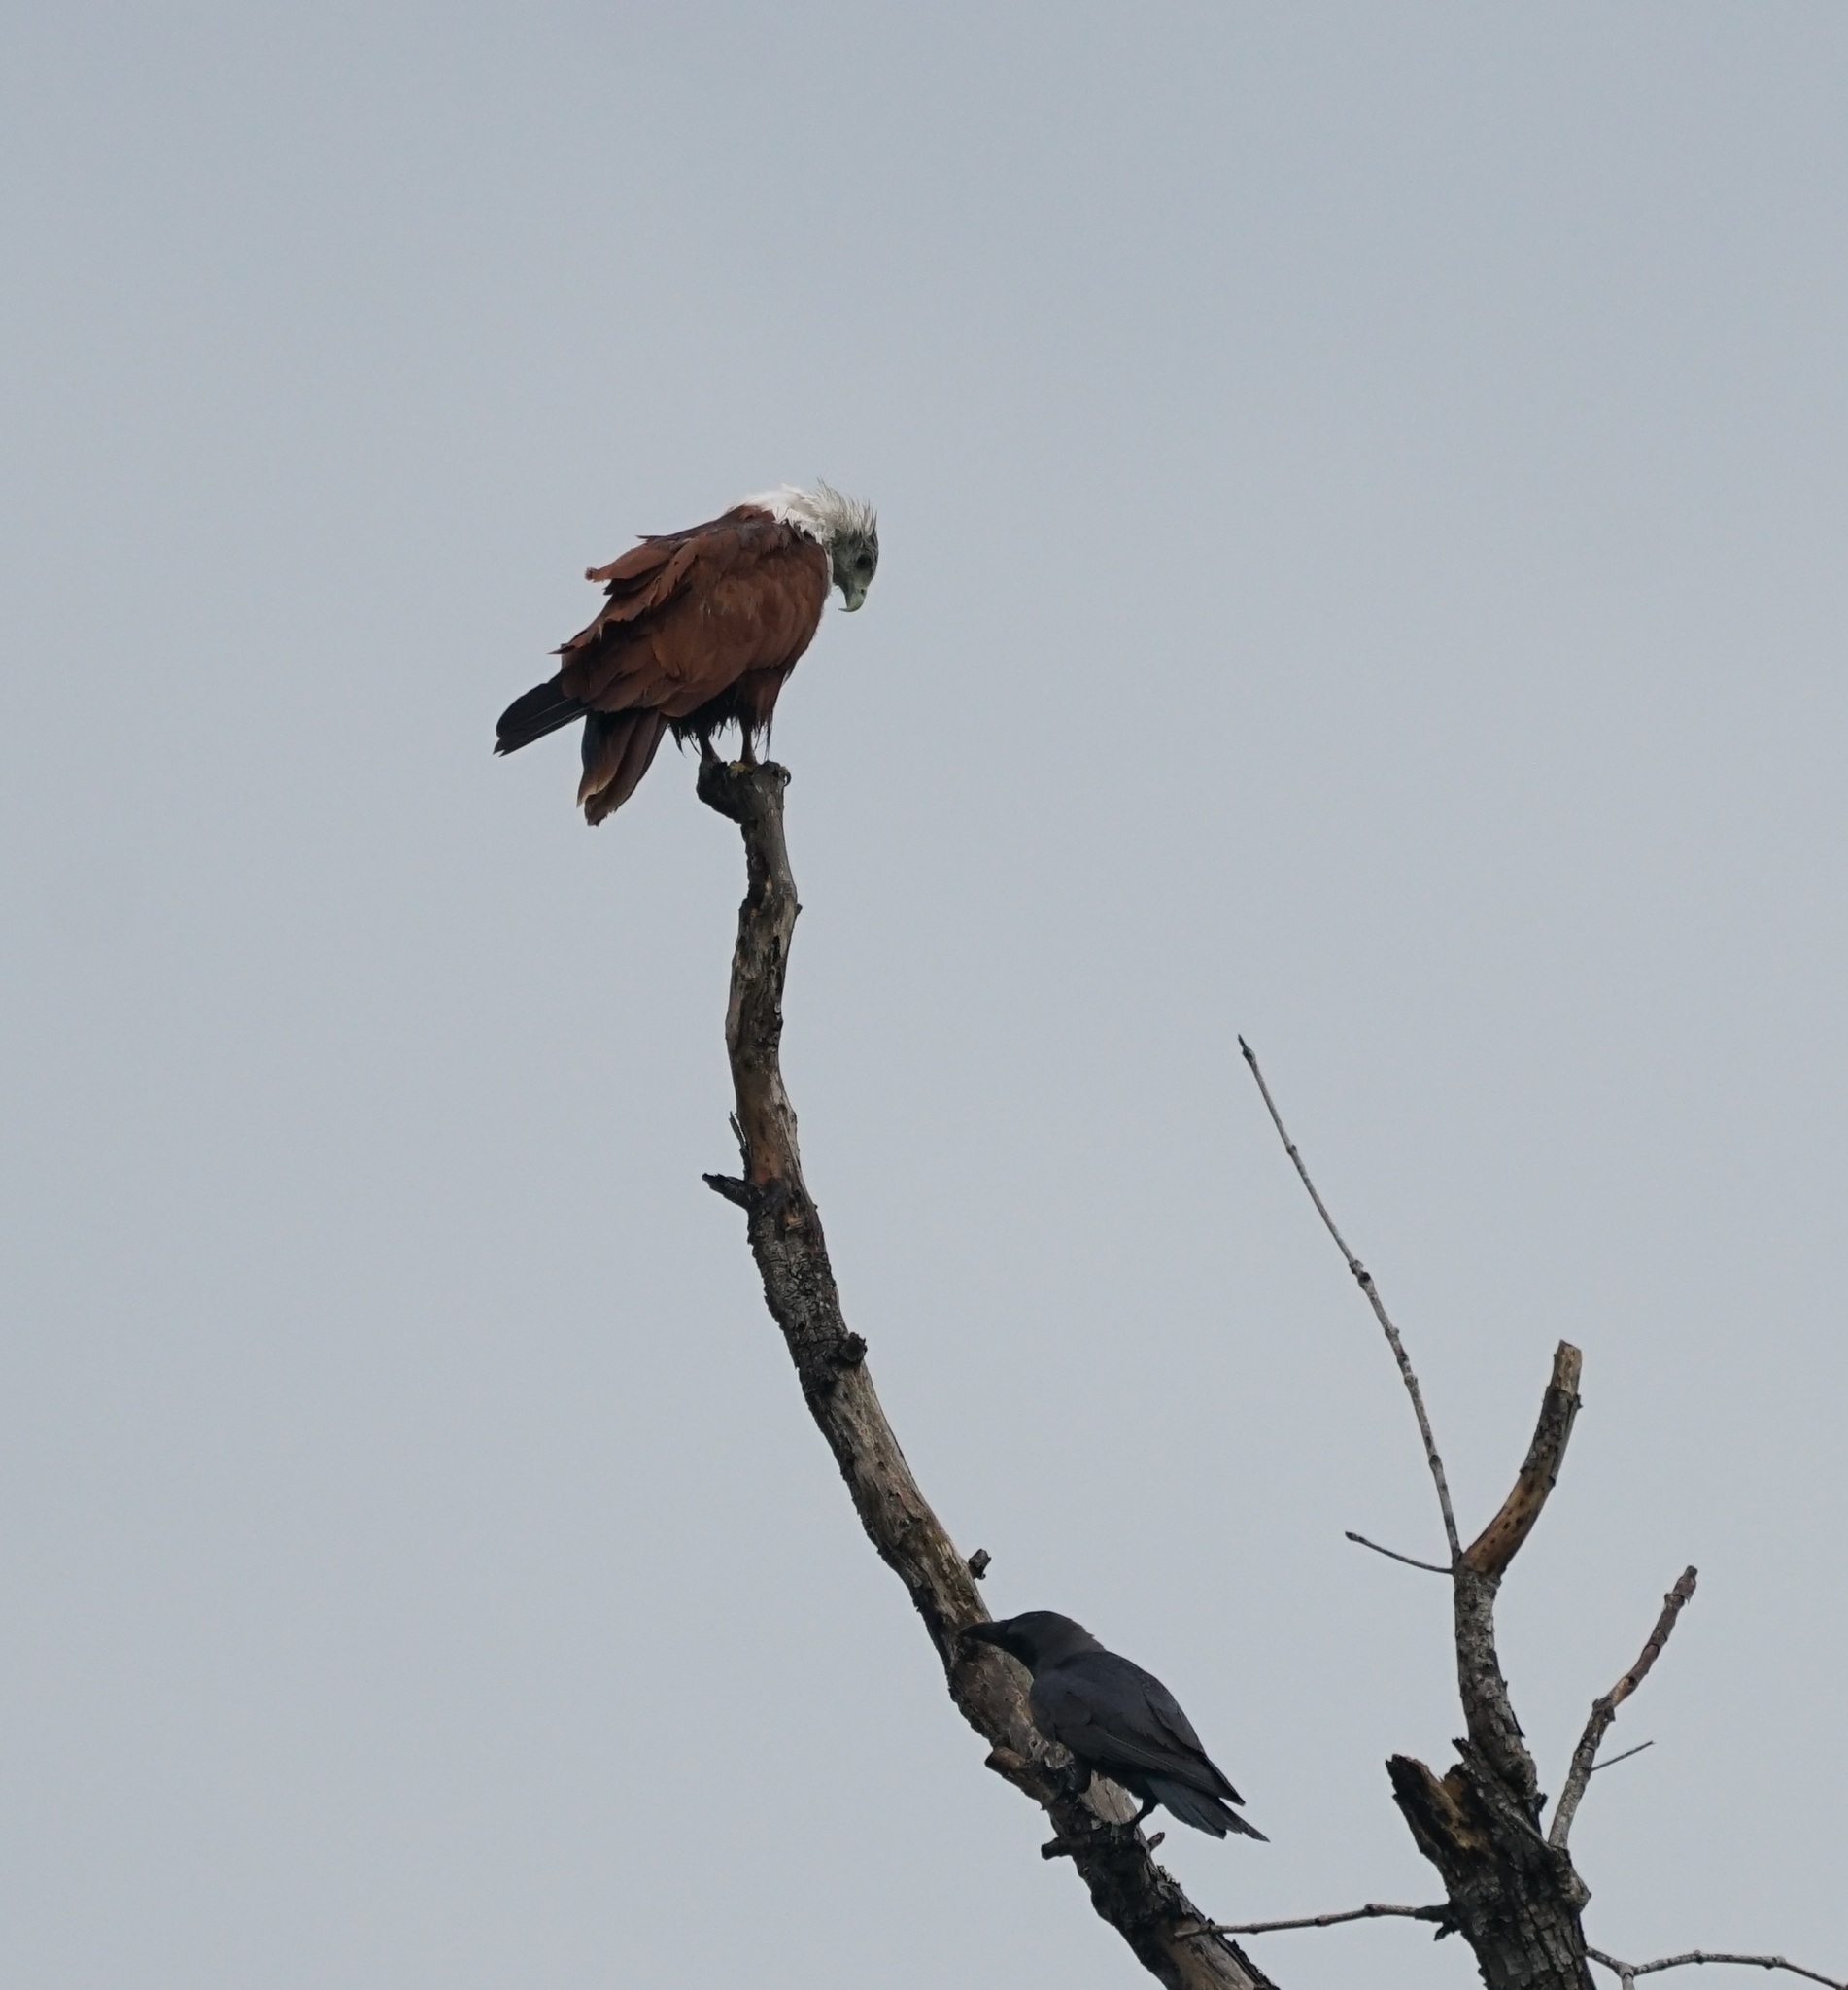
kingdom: Animalia
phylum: Chordata
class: Aves
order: Accipitriformes
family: Accipitridae
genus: Haliastur
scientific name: Haliastur indus
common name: Brahminy kite
